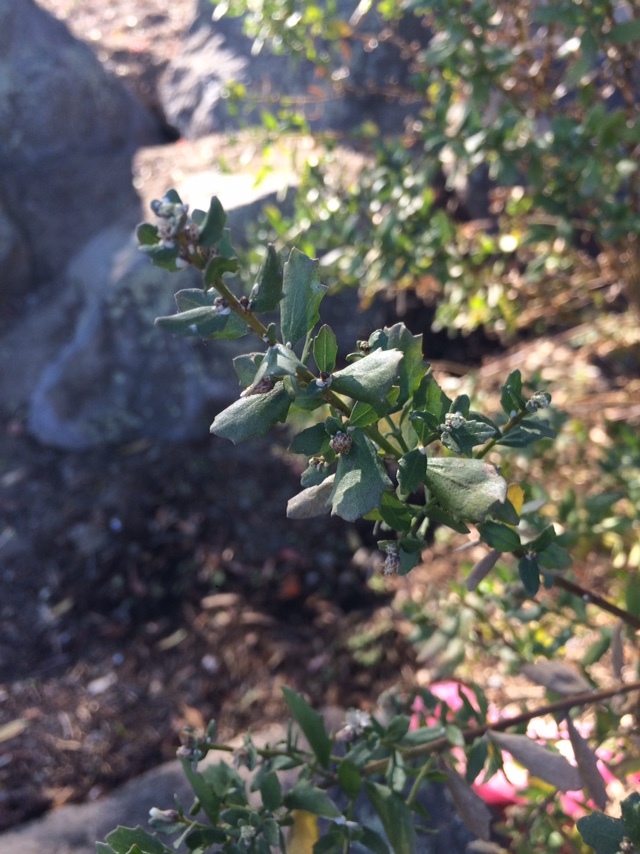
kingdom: Plantae
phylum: Tracheophyta
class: Magnoliopsida
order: Asterales
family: Asteraceae
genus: Baccharis
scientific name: Baccharis pilularis
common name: Coyotebrush
